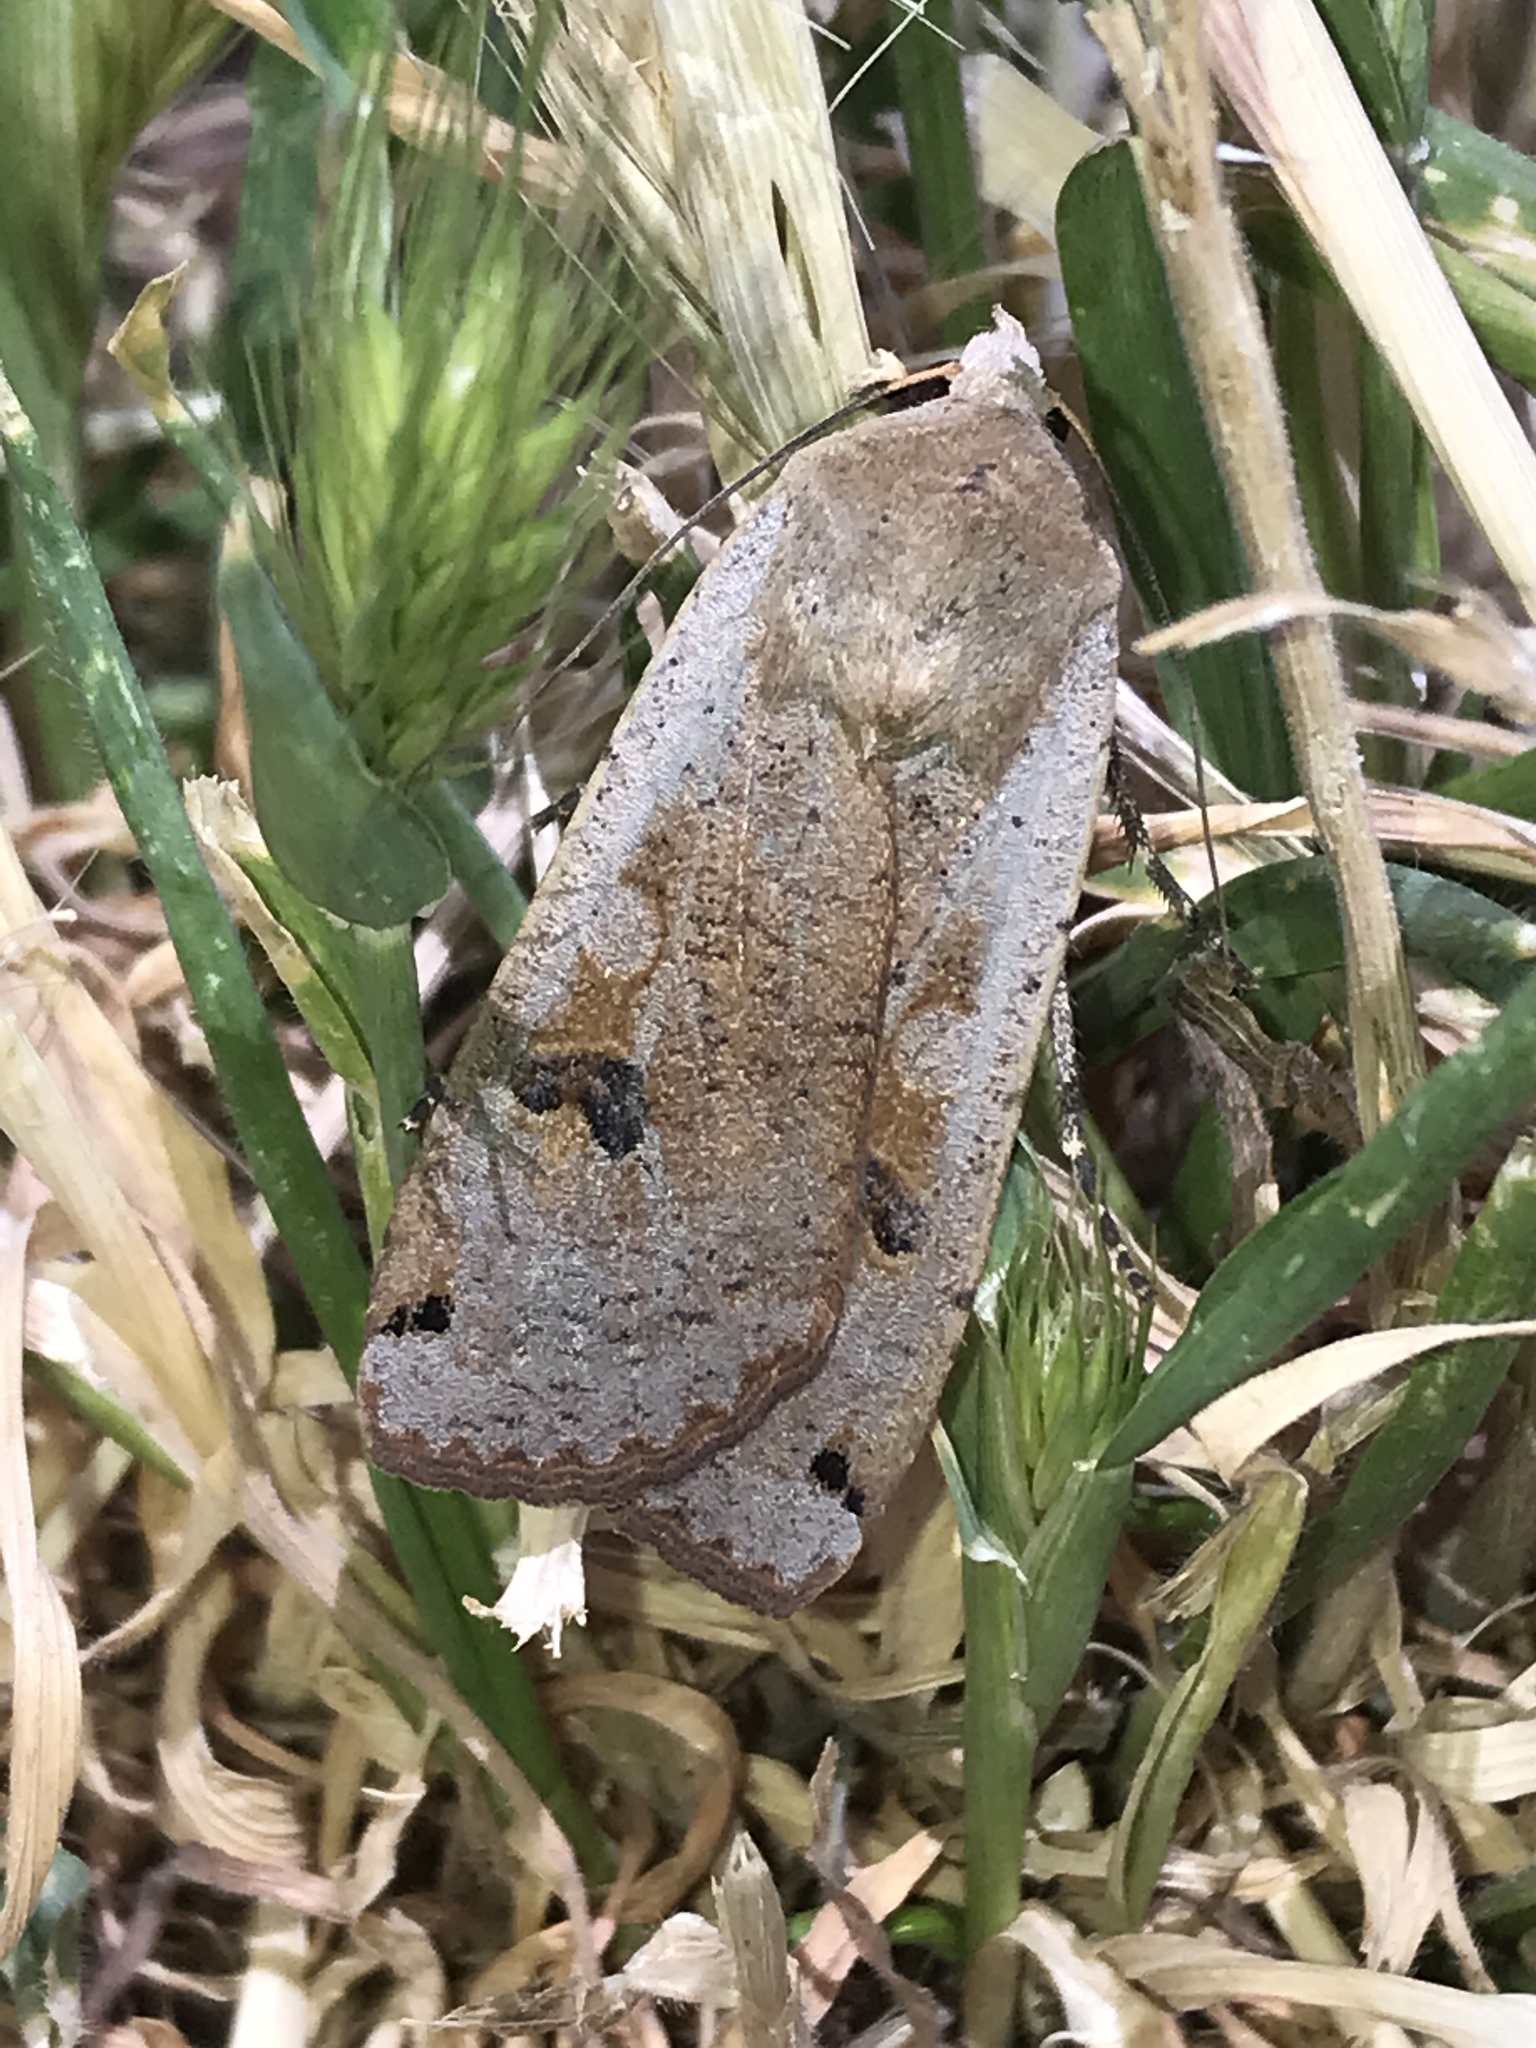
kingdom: Animalia
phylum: Arthropoda
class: Insecta
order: Lepidoptera
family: Noctuidae
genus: Noctua
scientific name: Noctua pronuba
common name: Large yellow underwing
